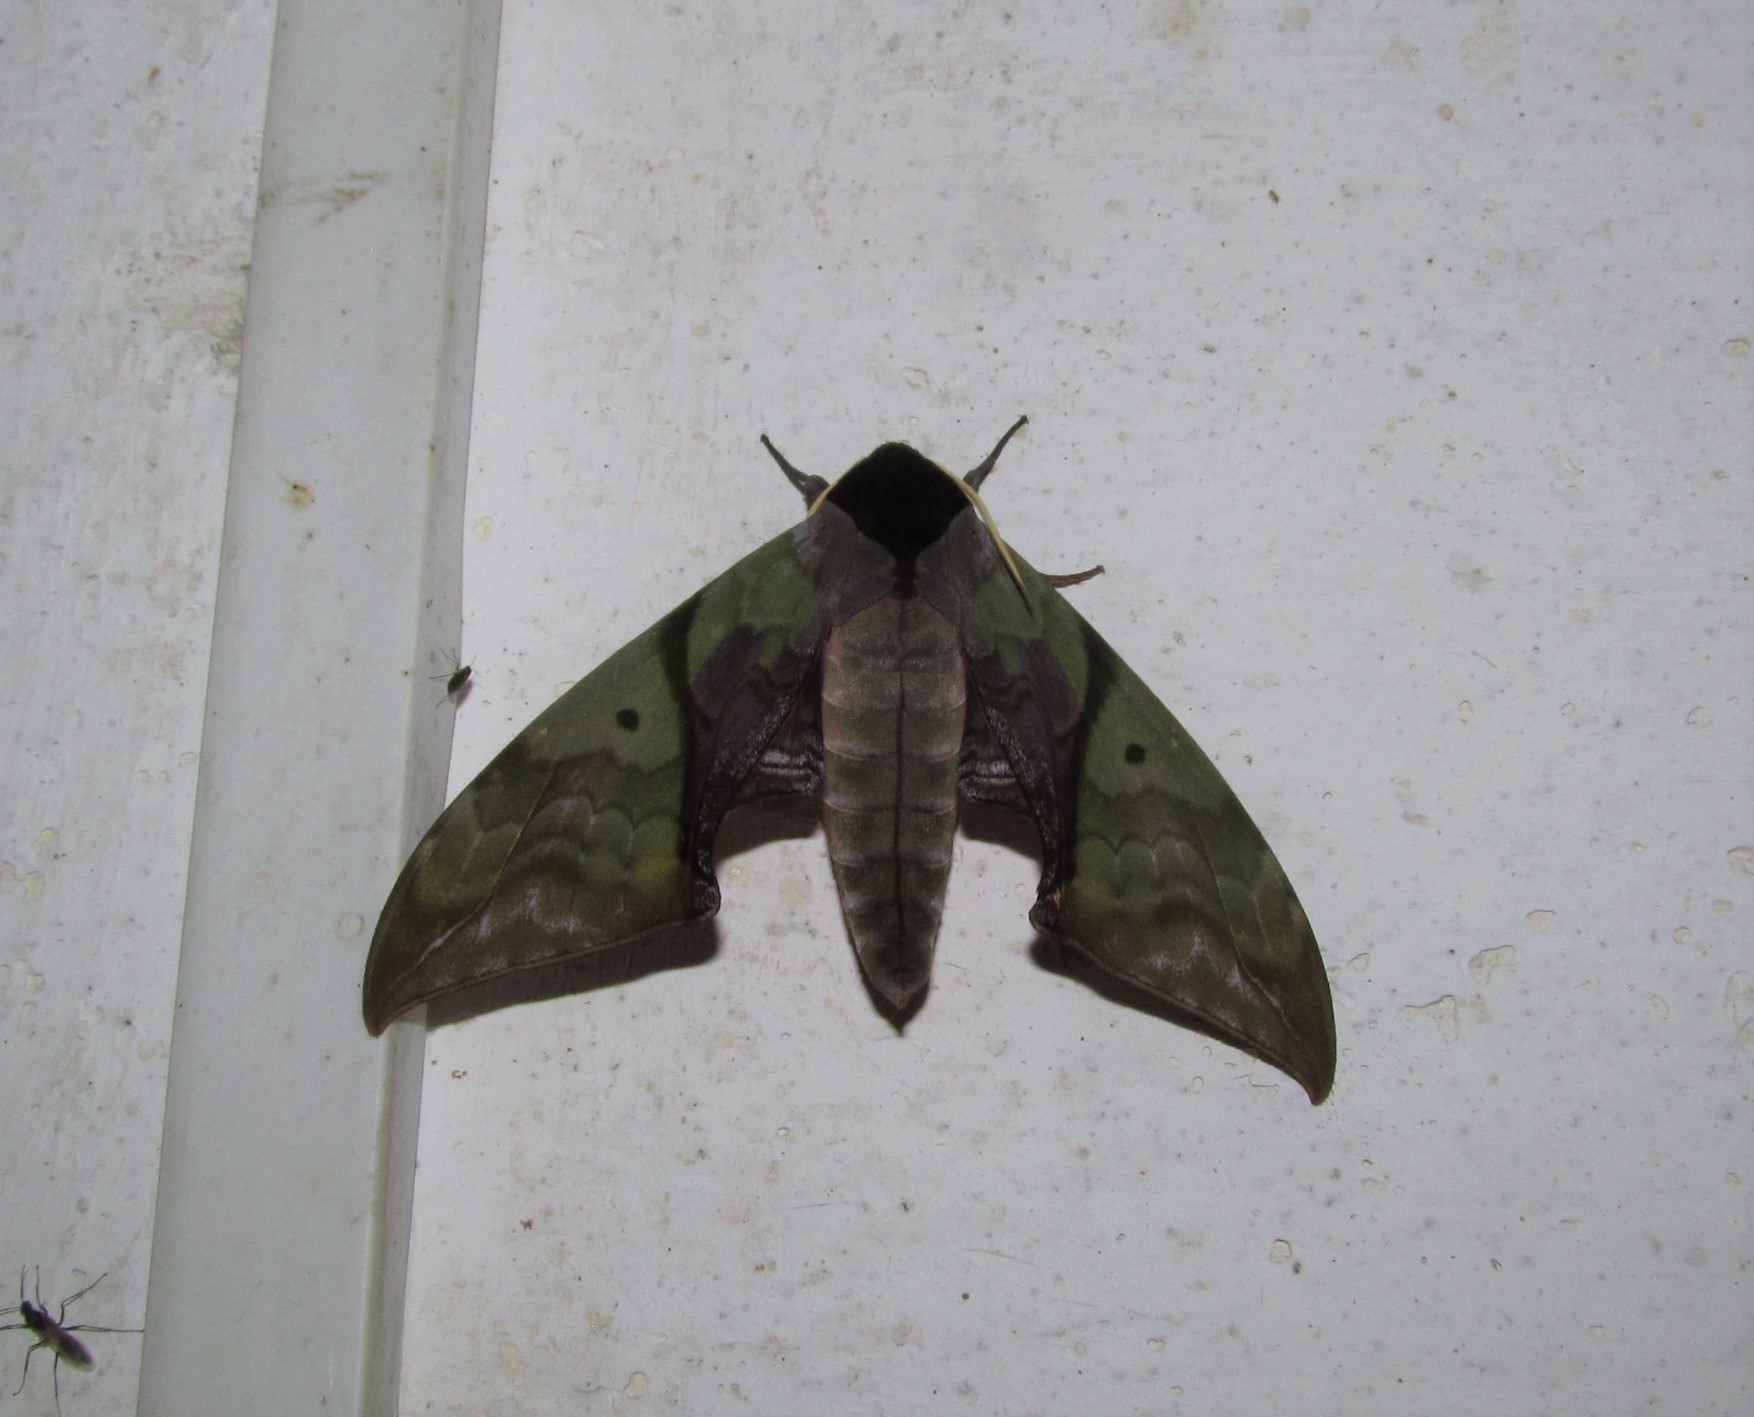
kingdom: Animalia
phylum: Arthropoda
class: Insecta
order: Lepidoptera
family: Sphingidae
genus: Callambulyx
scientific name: Callambulyx rubricosa
